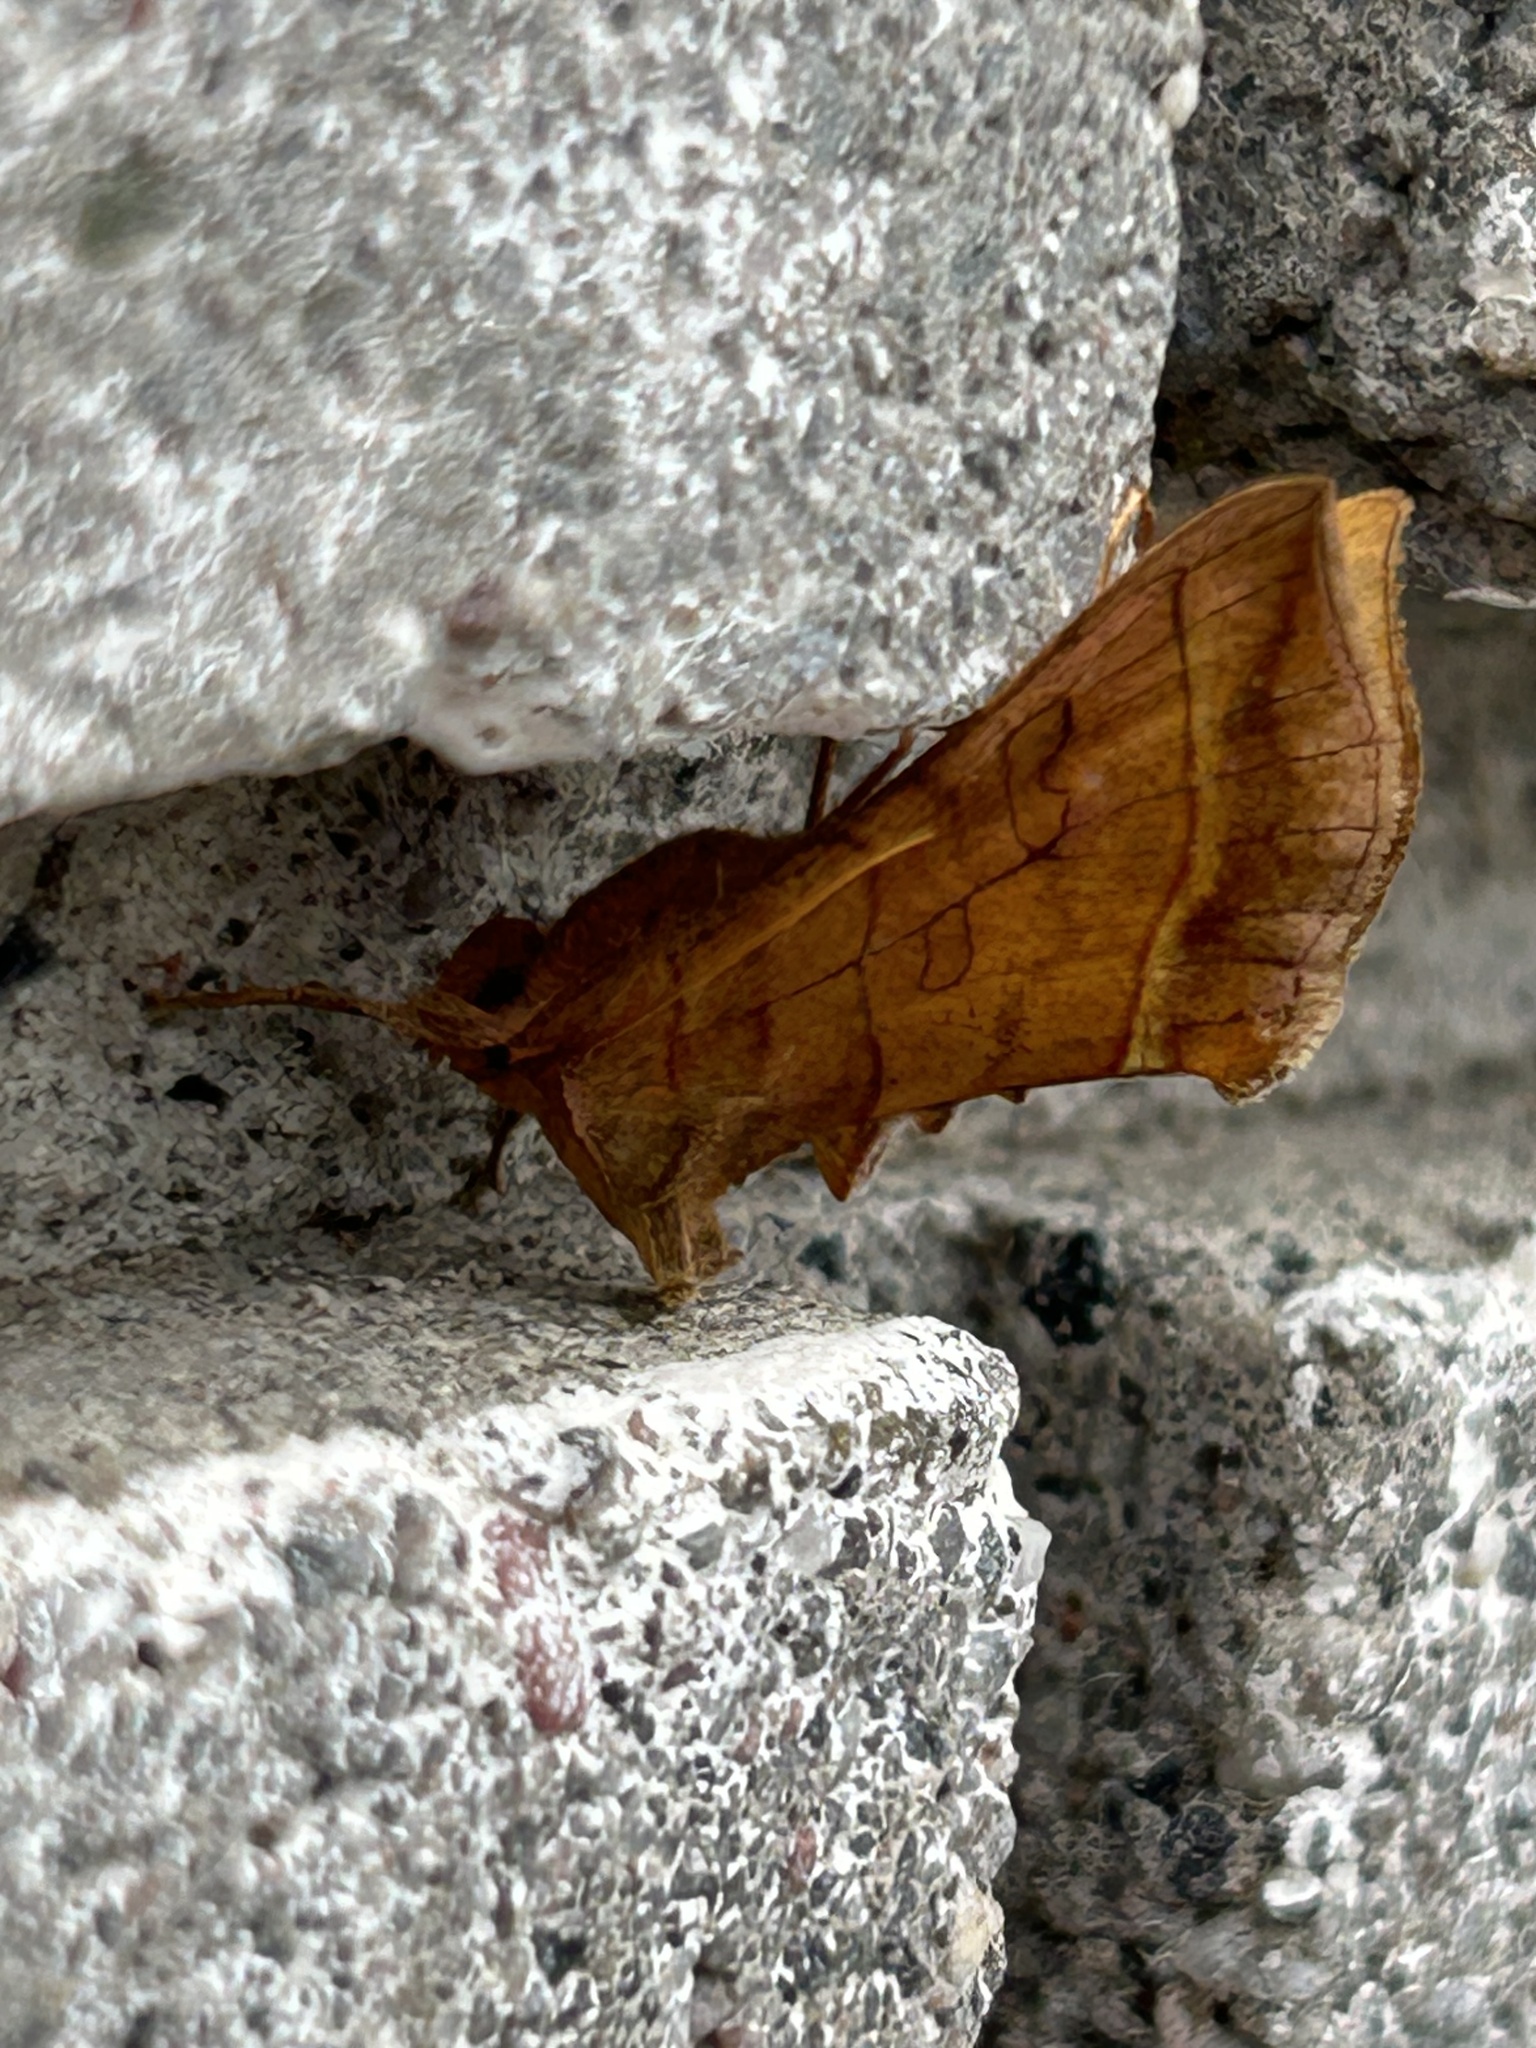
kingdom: Animalia
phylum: Arthropoda
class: Insecta
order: Lepidoptera
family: Noctuidae
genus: Diachrysia
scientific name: Diachrysia aereoides
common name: Dark-spotted looper moth
